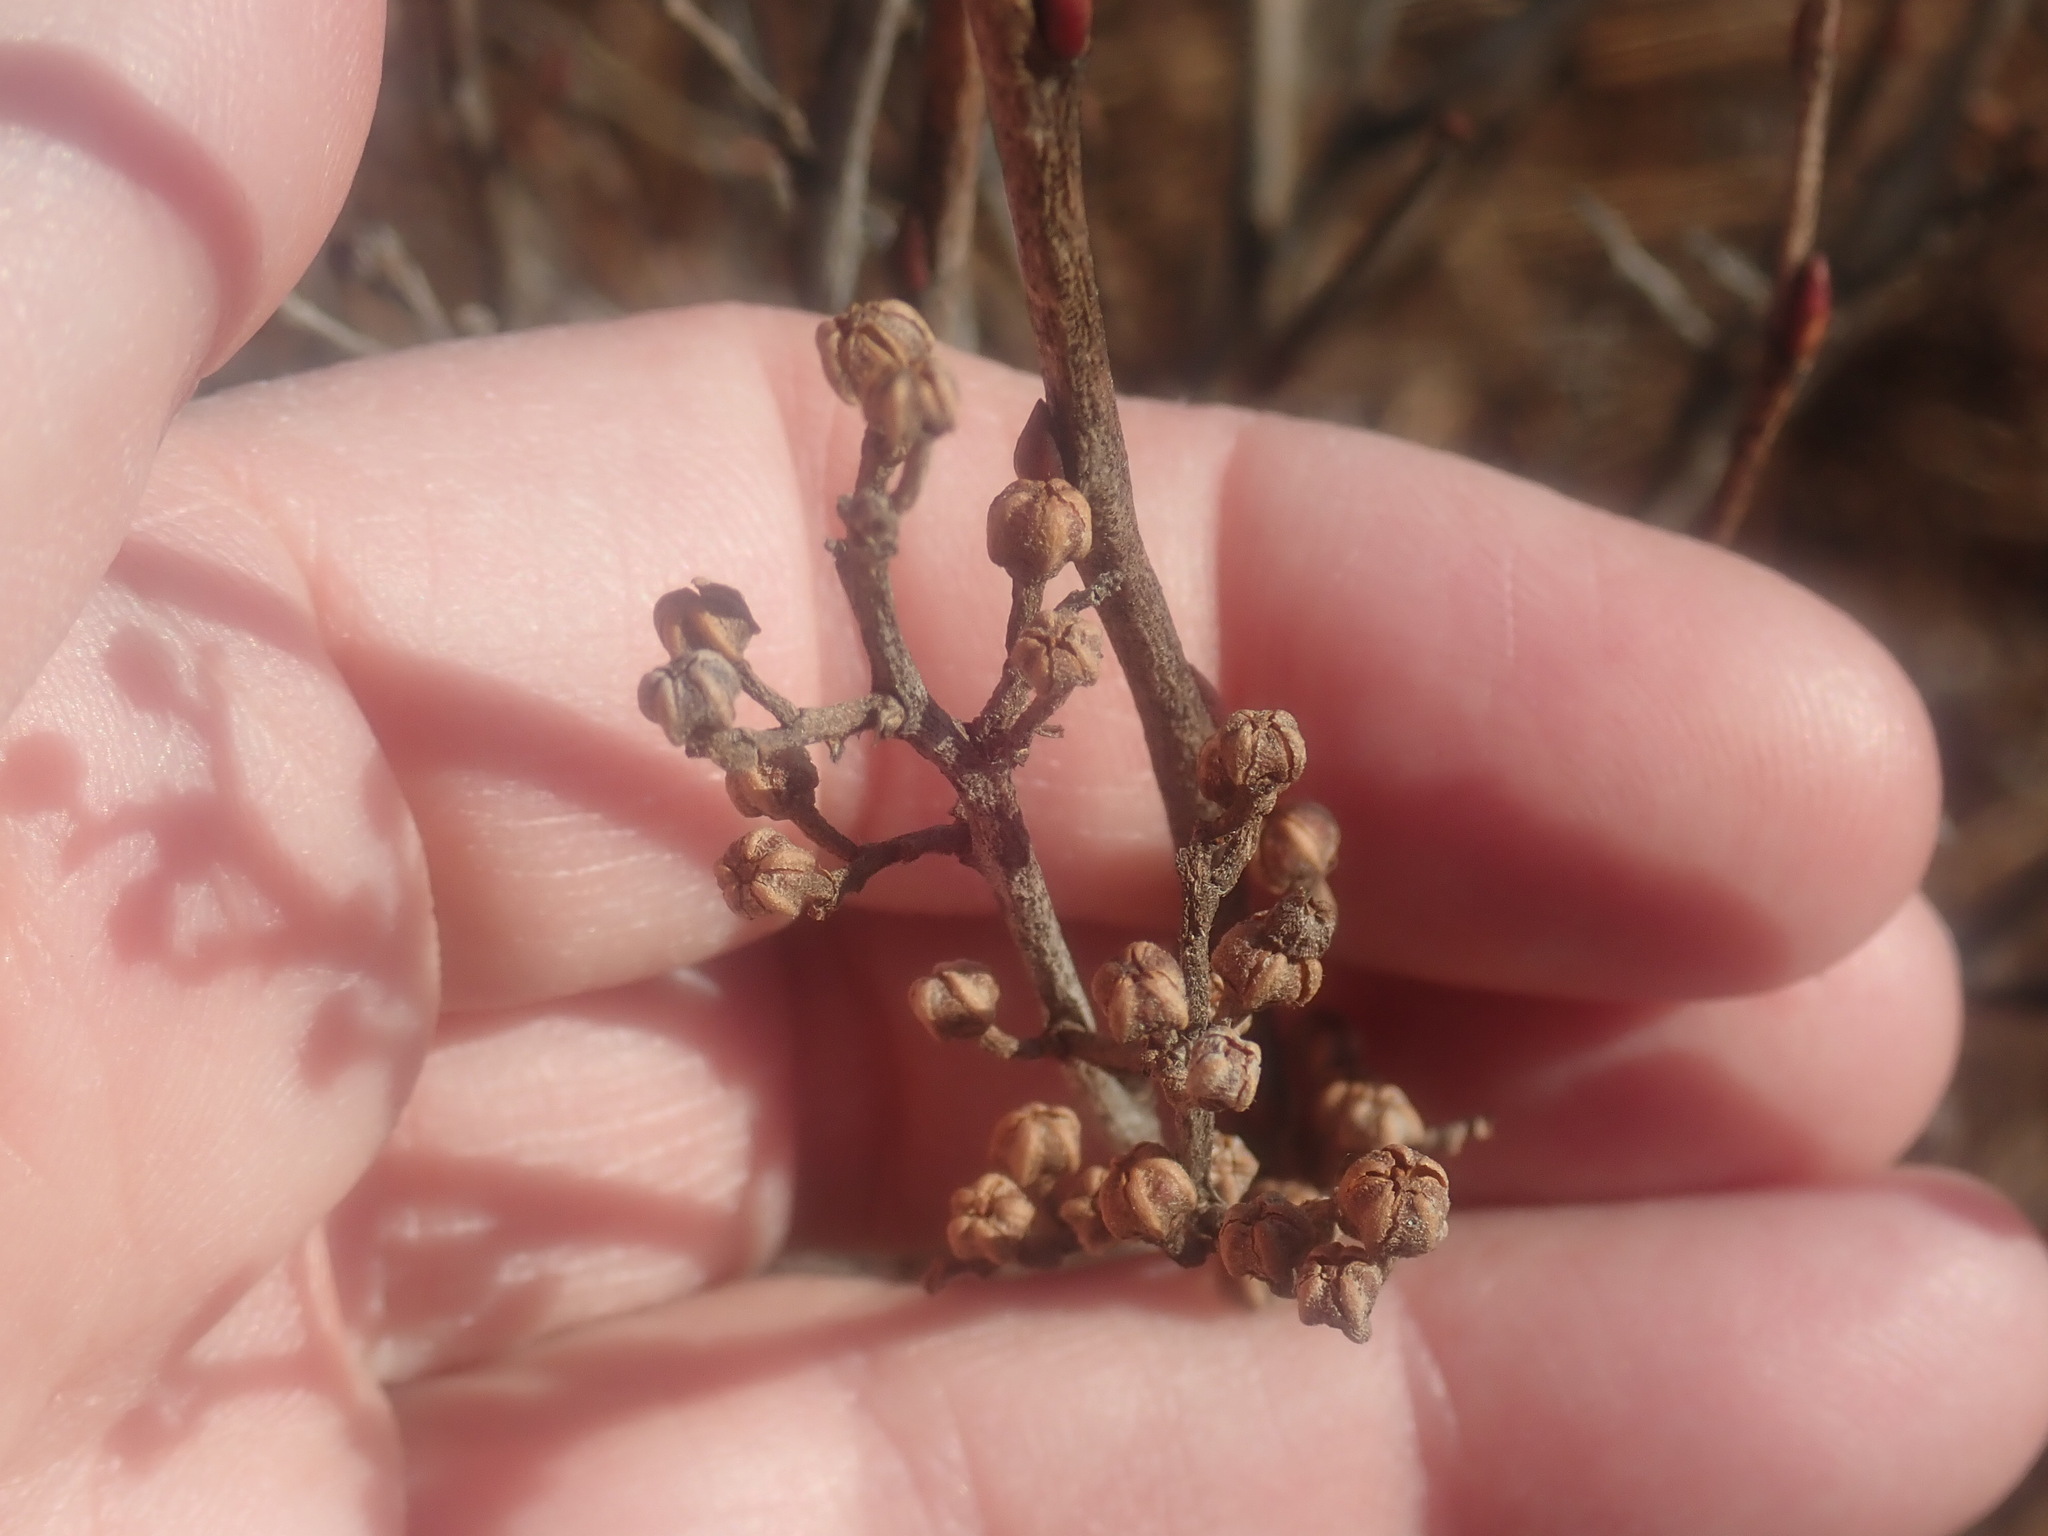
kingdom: Plantae
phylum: Tracheophyta
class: Magnoliopsida
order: Ericales
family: Ericaceae
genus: Lyonia
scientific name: Lyonia ligustrina
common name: Maleberry
